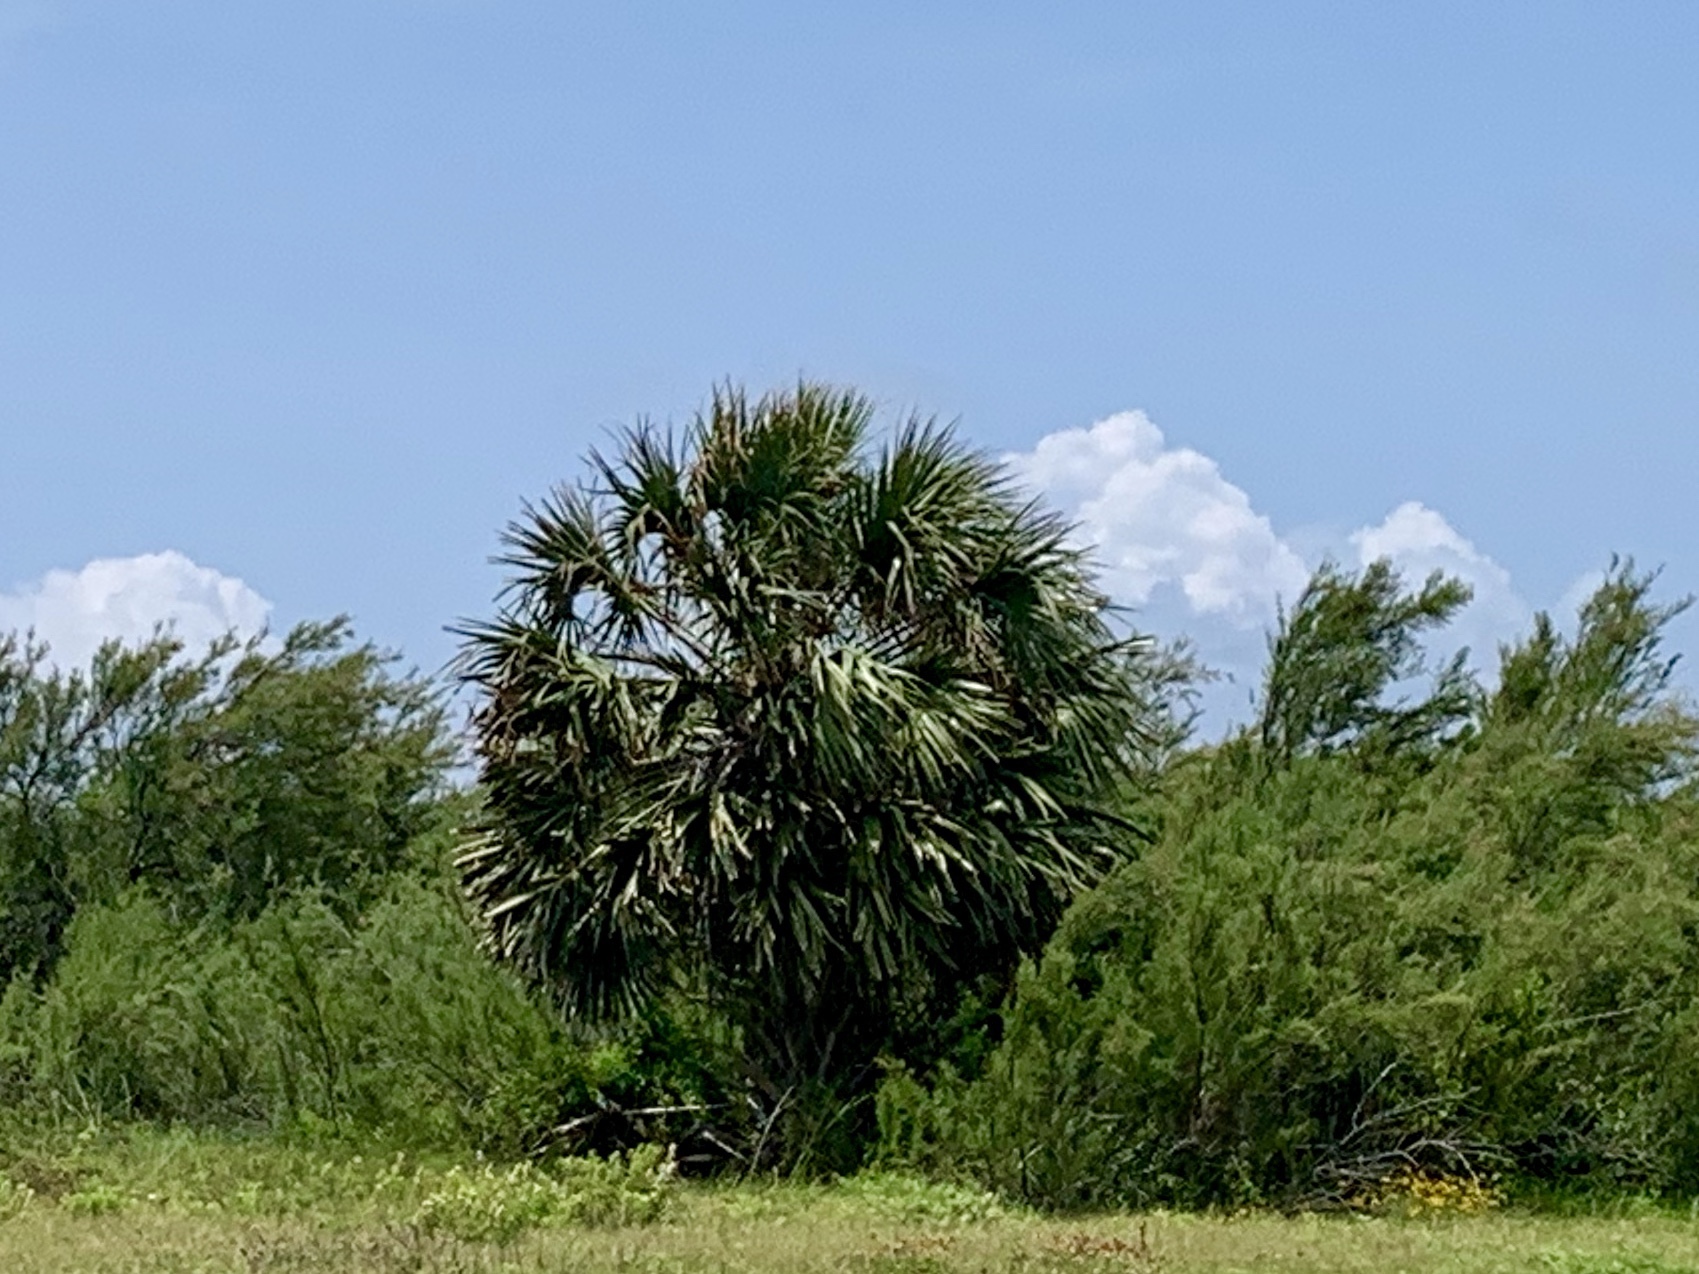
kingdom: Plantae
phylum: Tracheophyta
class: Liliopsida
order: Arecales
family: Arecaceae
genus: Sabal
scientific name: Sabal mexicana
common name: Texas palmetto
